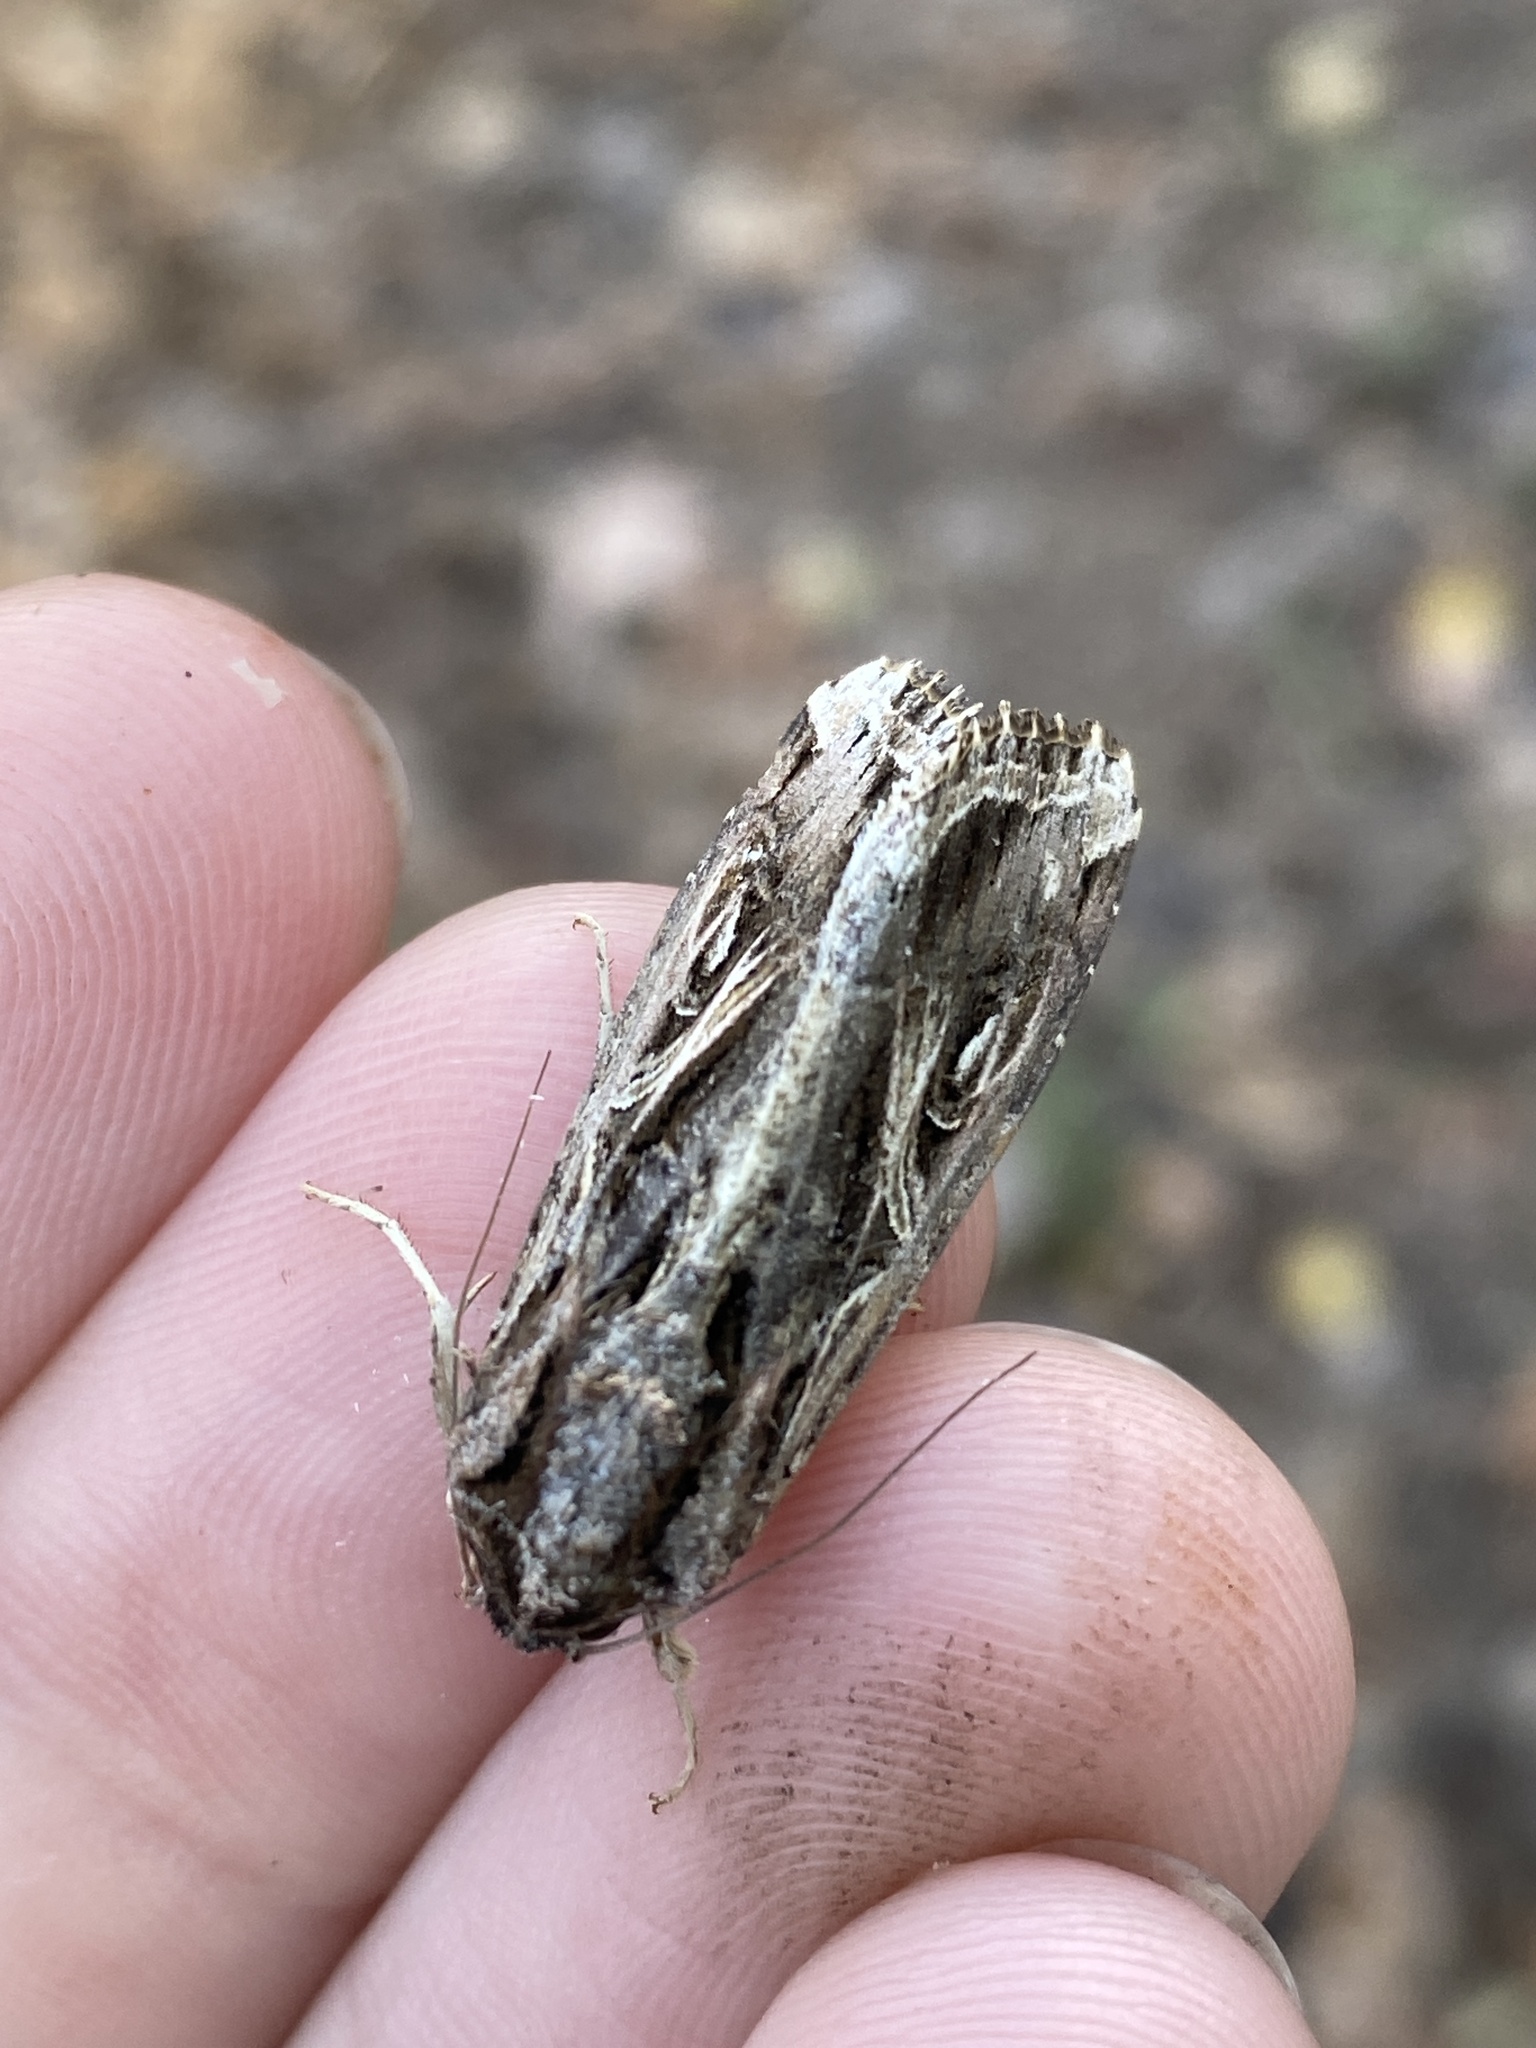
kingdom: Animalia
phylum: Arthropoda
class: Insecta
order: Lepidoptera
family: Noctuidae
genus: Spodoptera
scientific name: Spodoptera dolichos
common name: Sweetpotato armyworm
